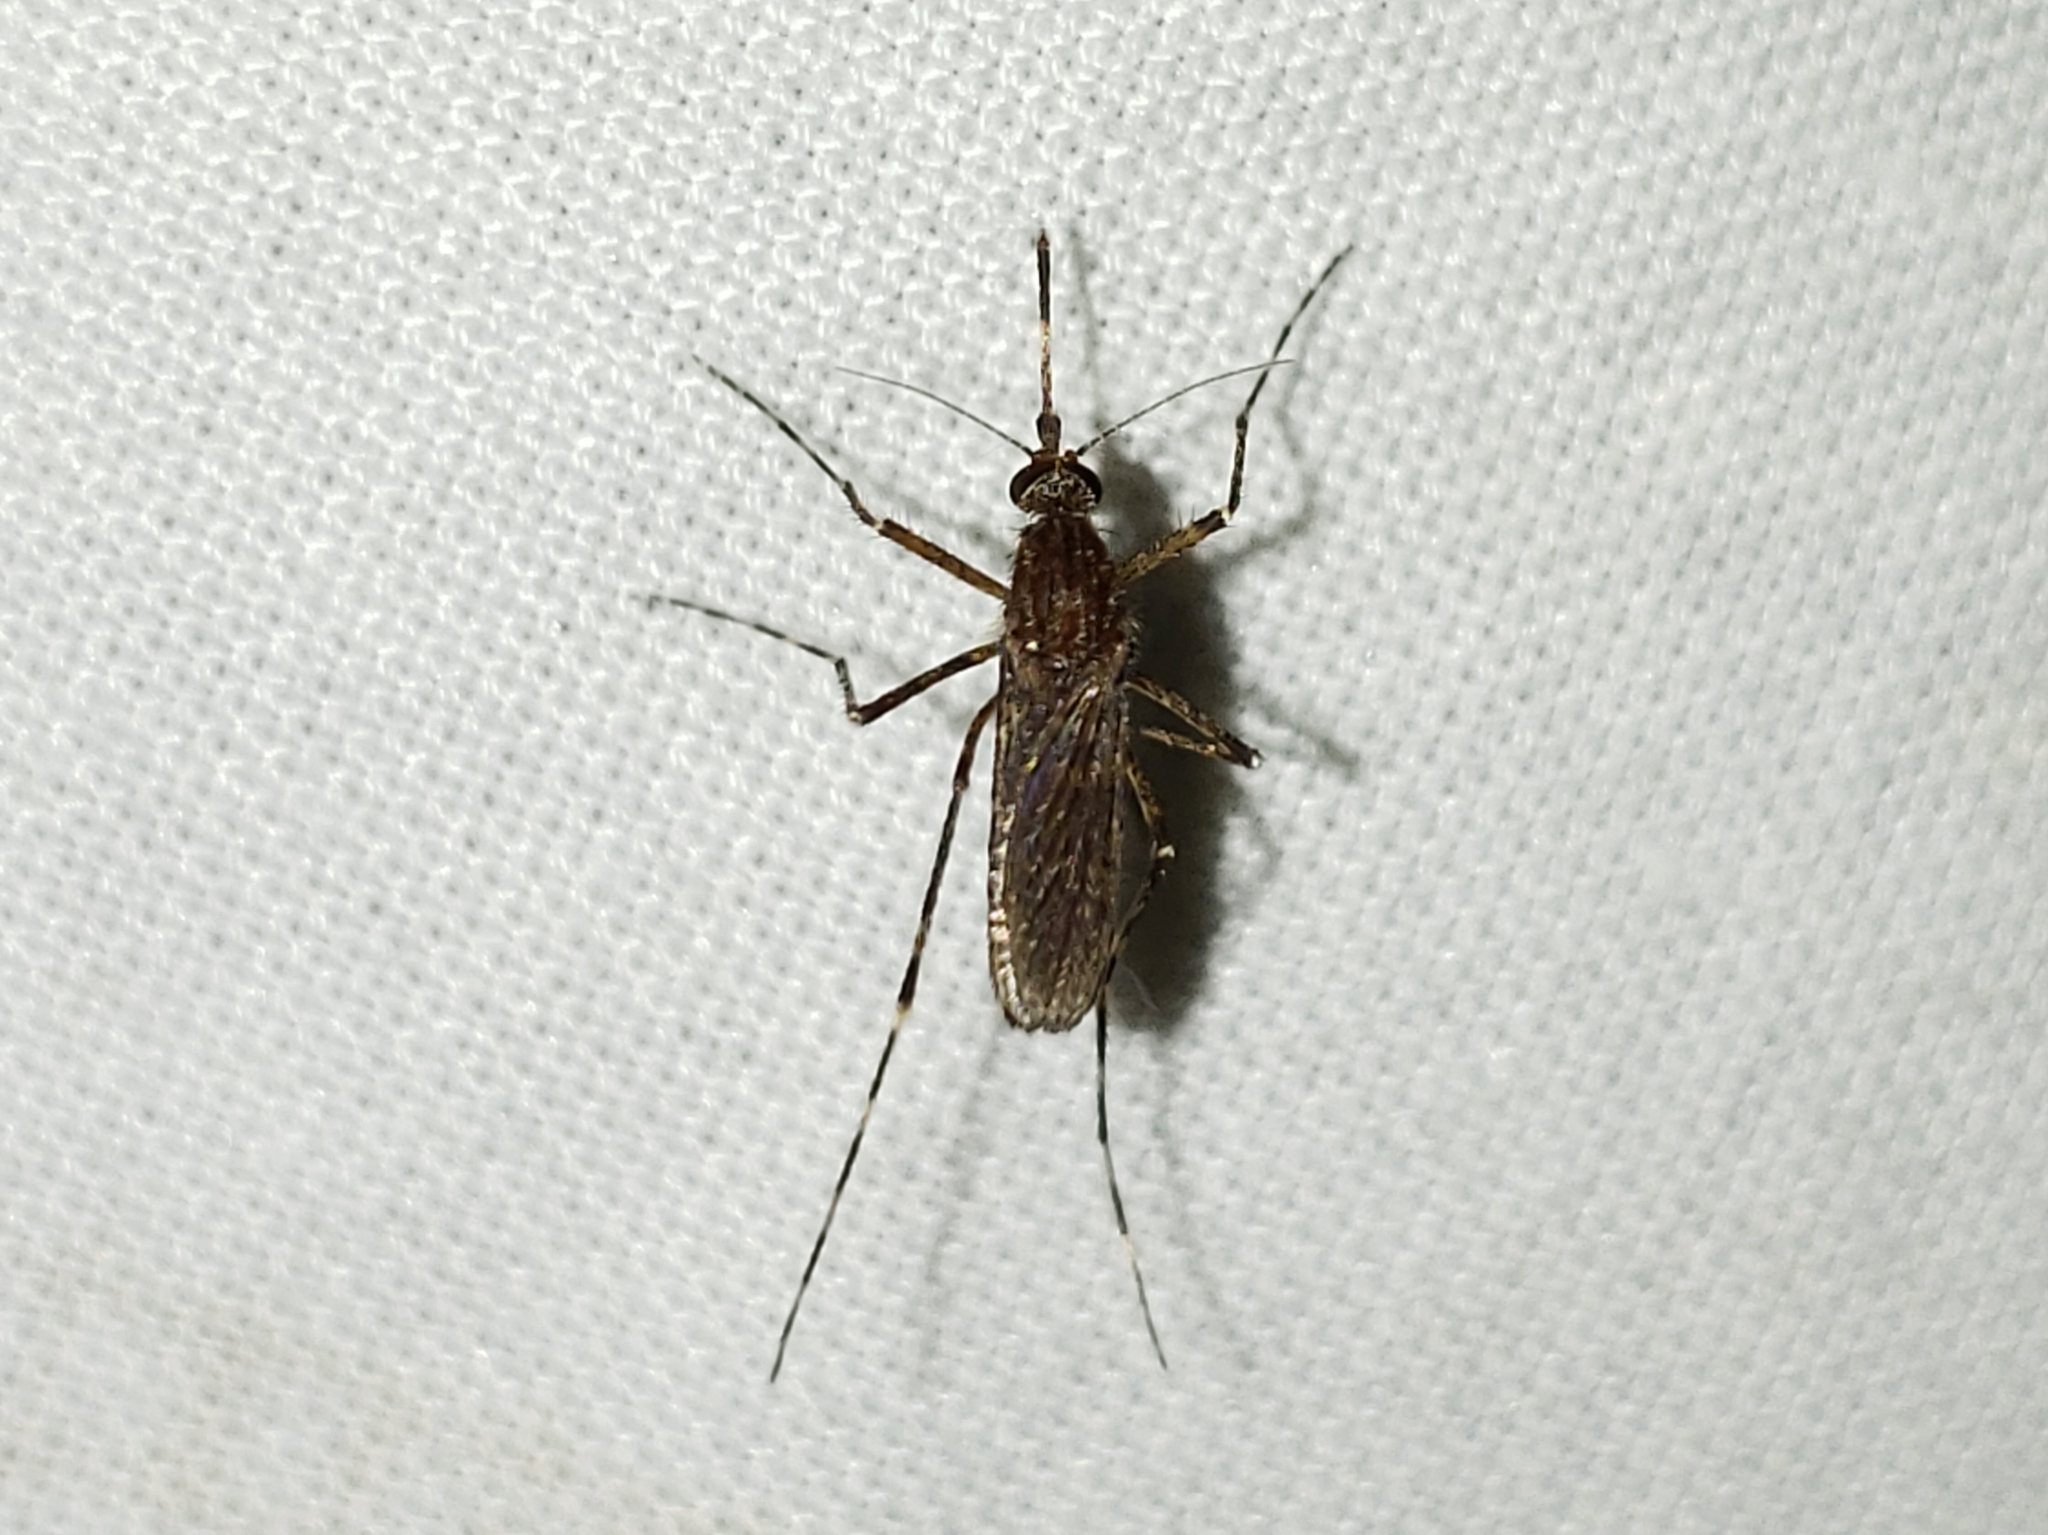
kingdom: Animalia
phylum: Arthropoda
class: Insecta
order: Diptera
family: Culicidae
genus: Coquillettidia
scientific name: Coquillettidia perturbans
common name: Cattail mosquito
